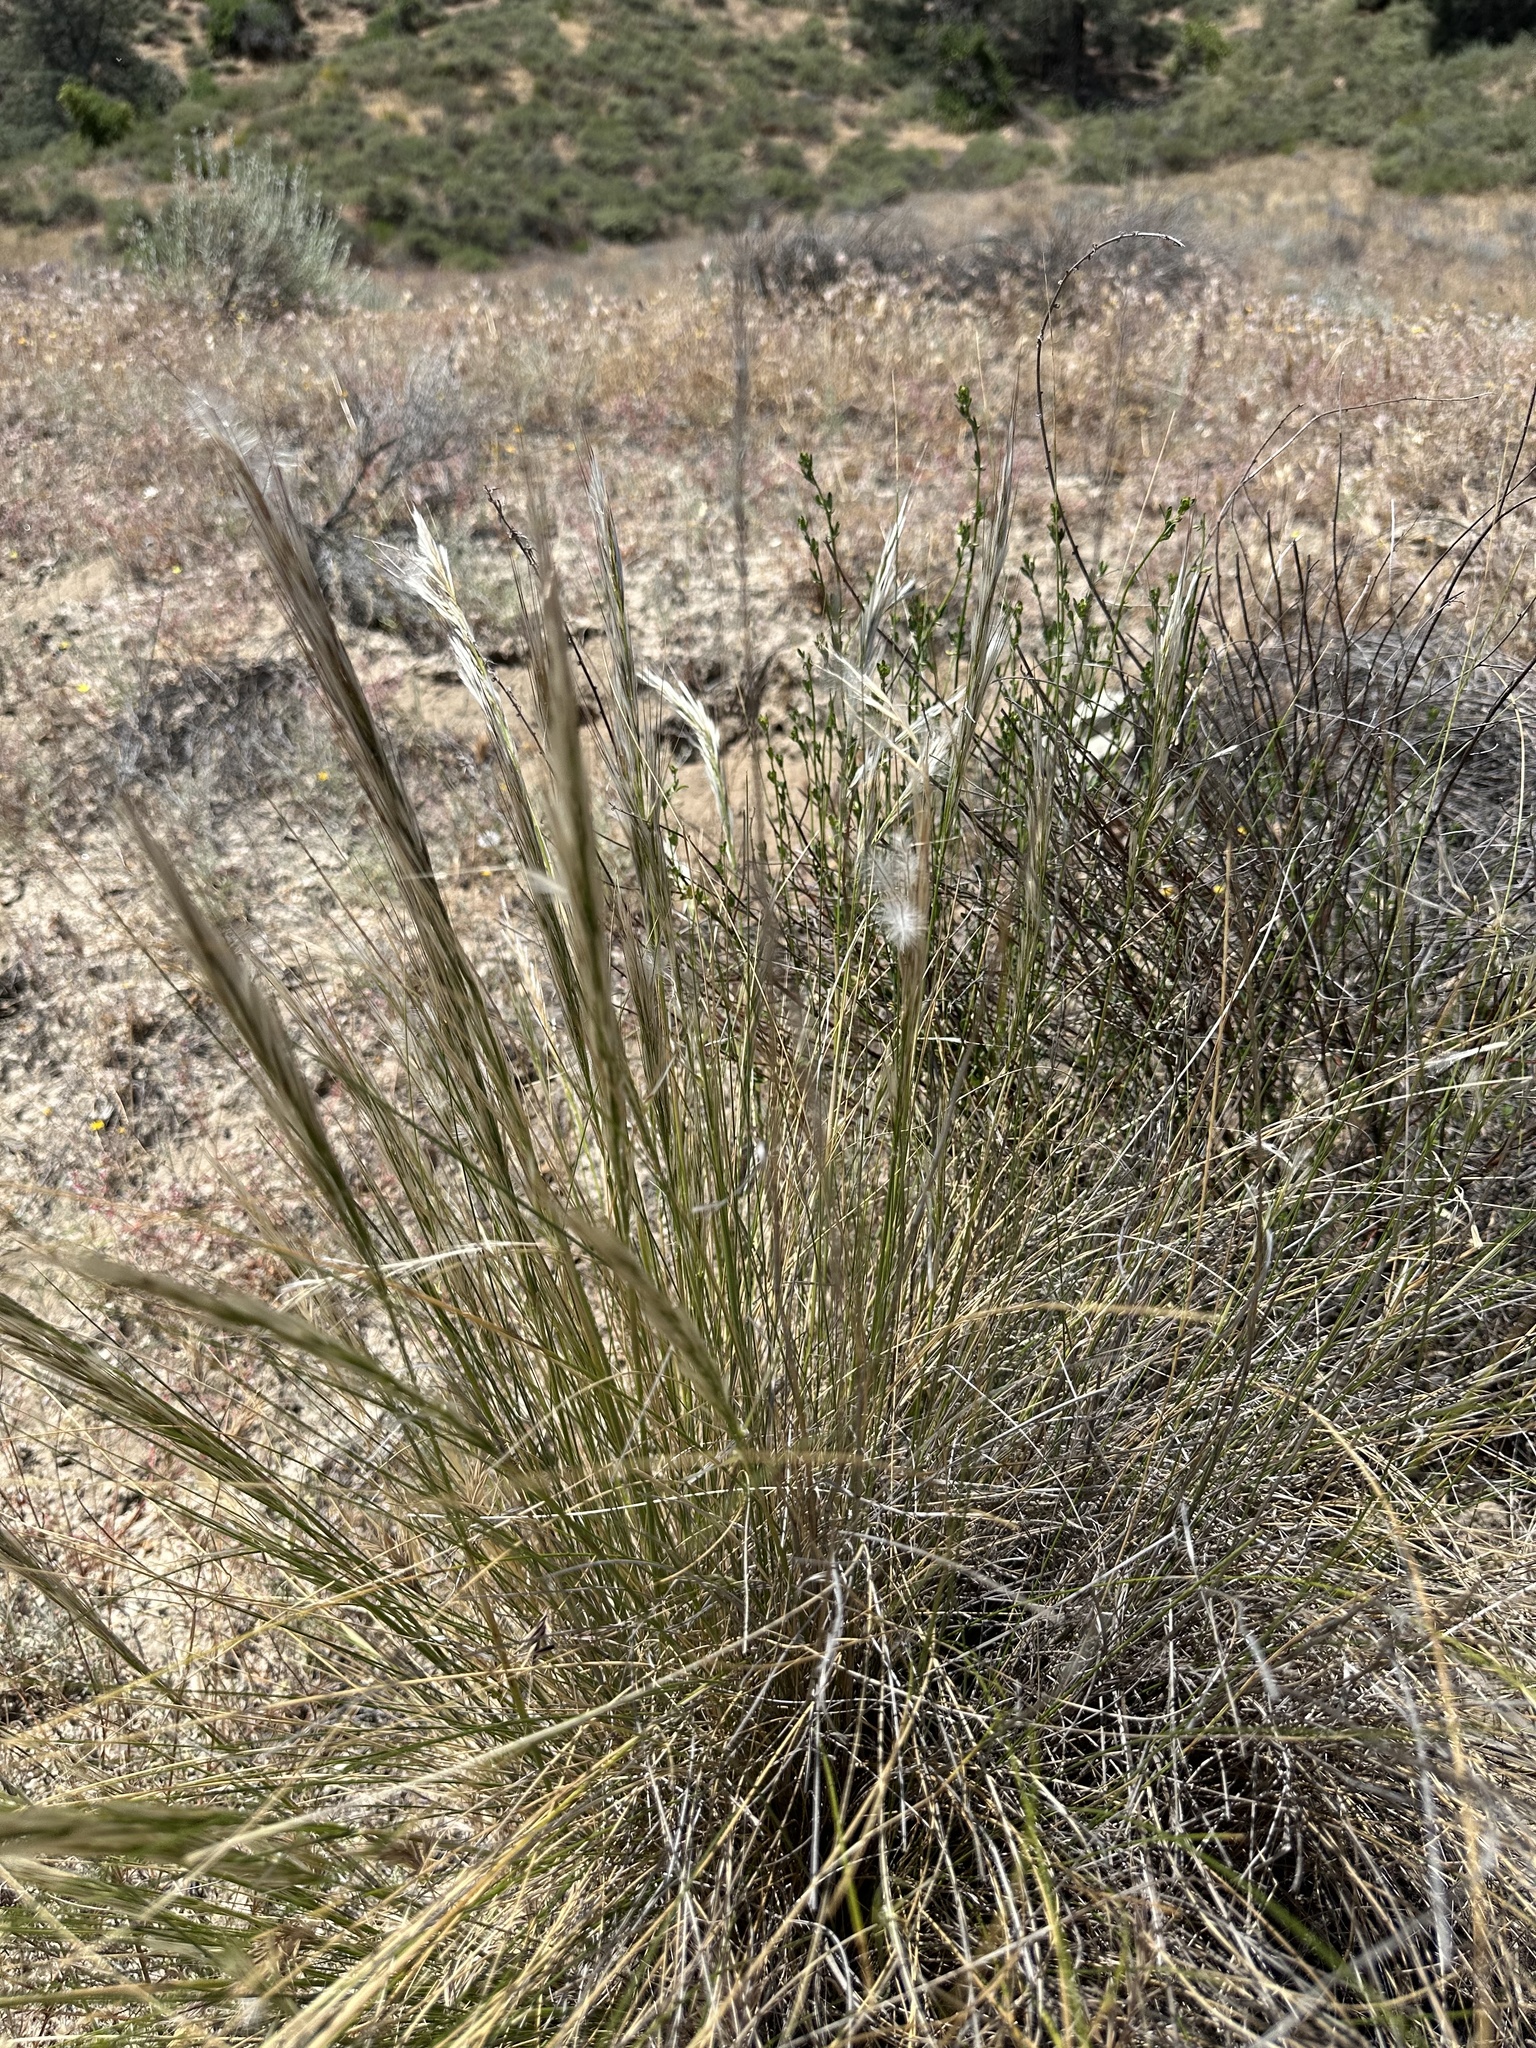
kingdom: Plantae
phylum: Tracheophyta
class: Liliopsida
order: Poales
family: Poaceae
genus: Pappostipa
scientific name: Pappostipa speciosa
